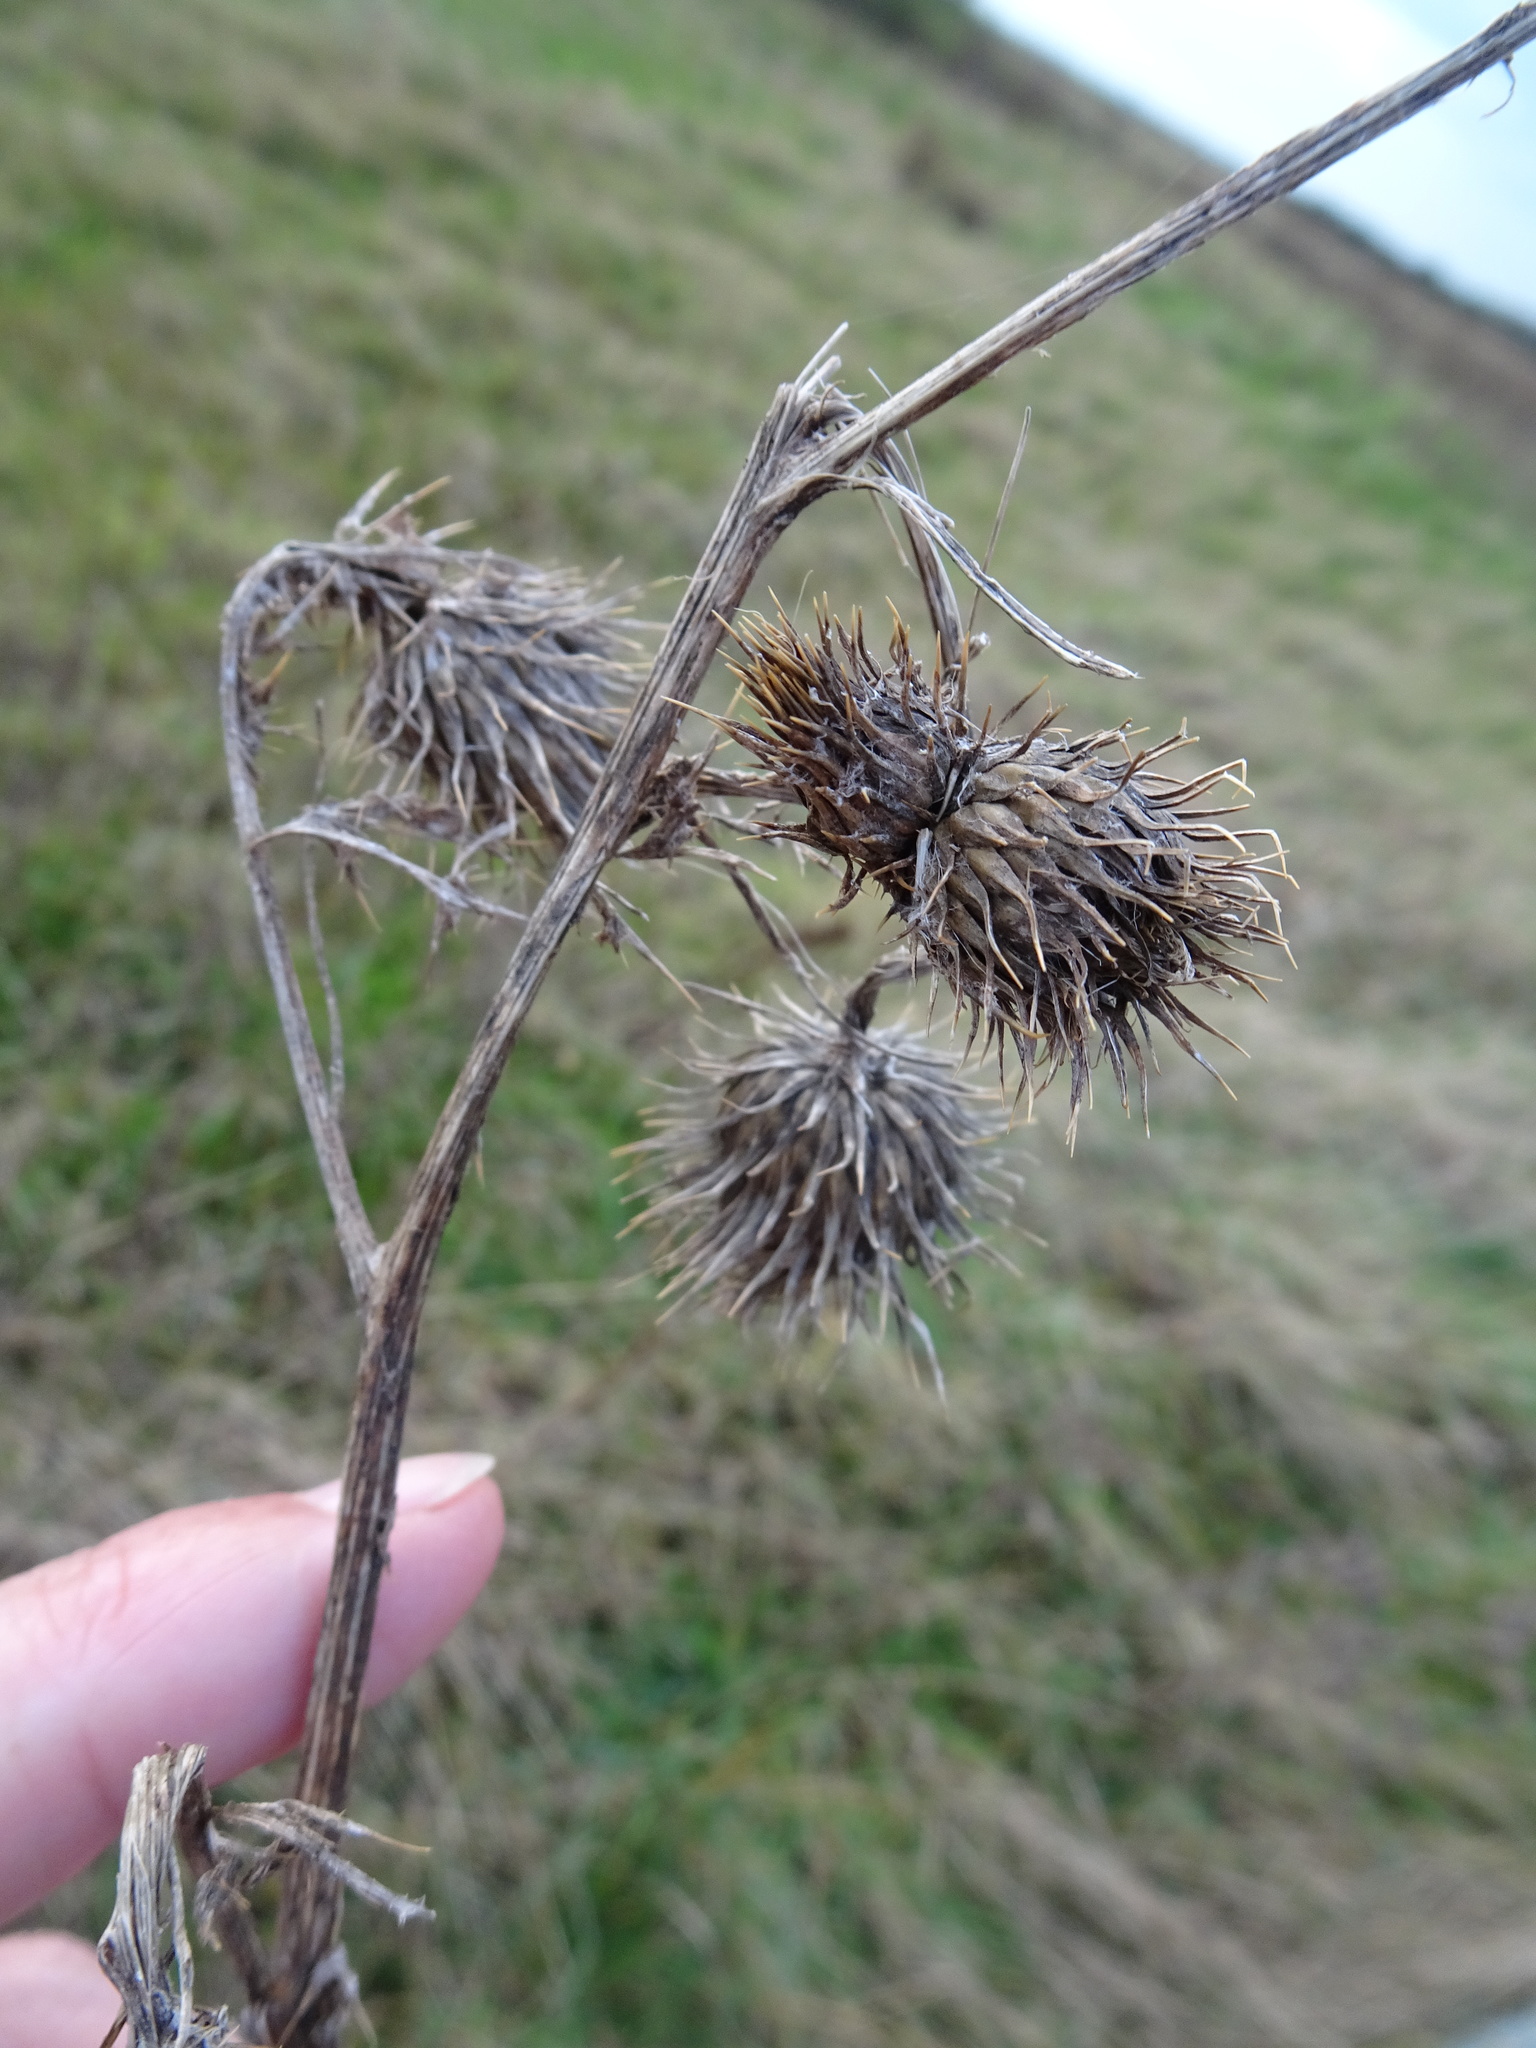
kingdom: Plantae
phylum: Tracheophyta
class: Magnoliopsida
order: Asterales
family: Asteraceae
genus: Cirsium
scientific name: Cirsium vulgare
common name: Bull thistle
